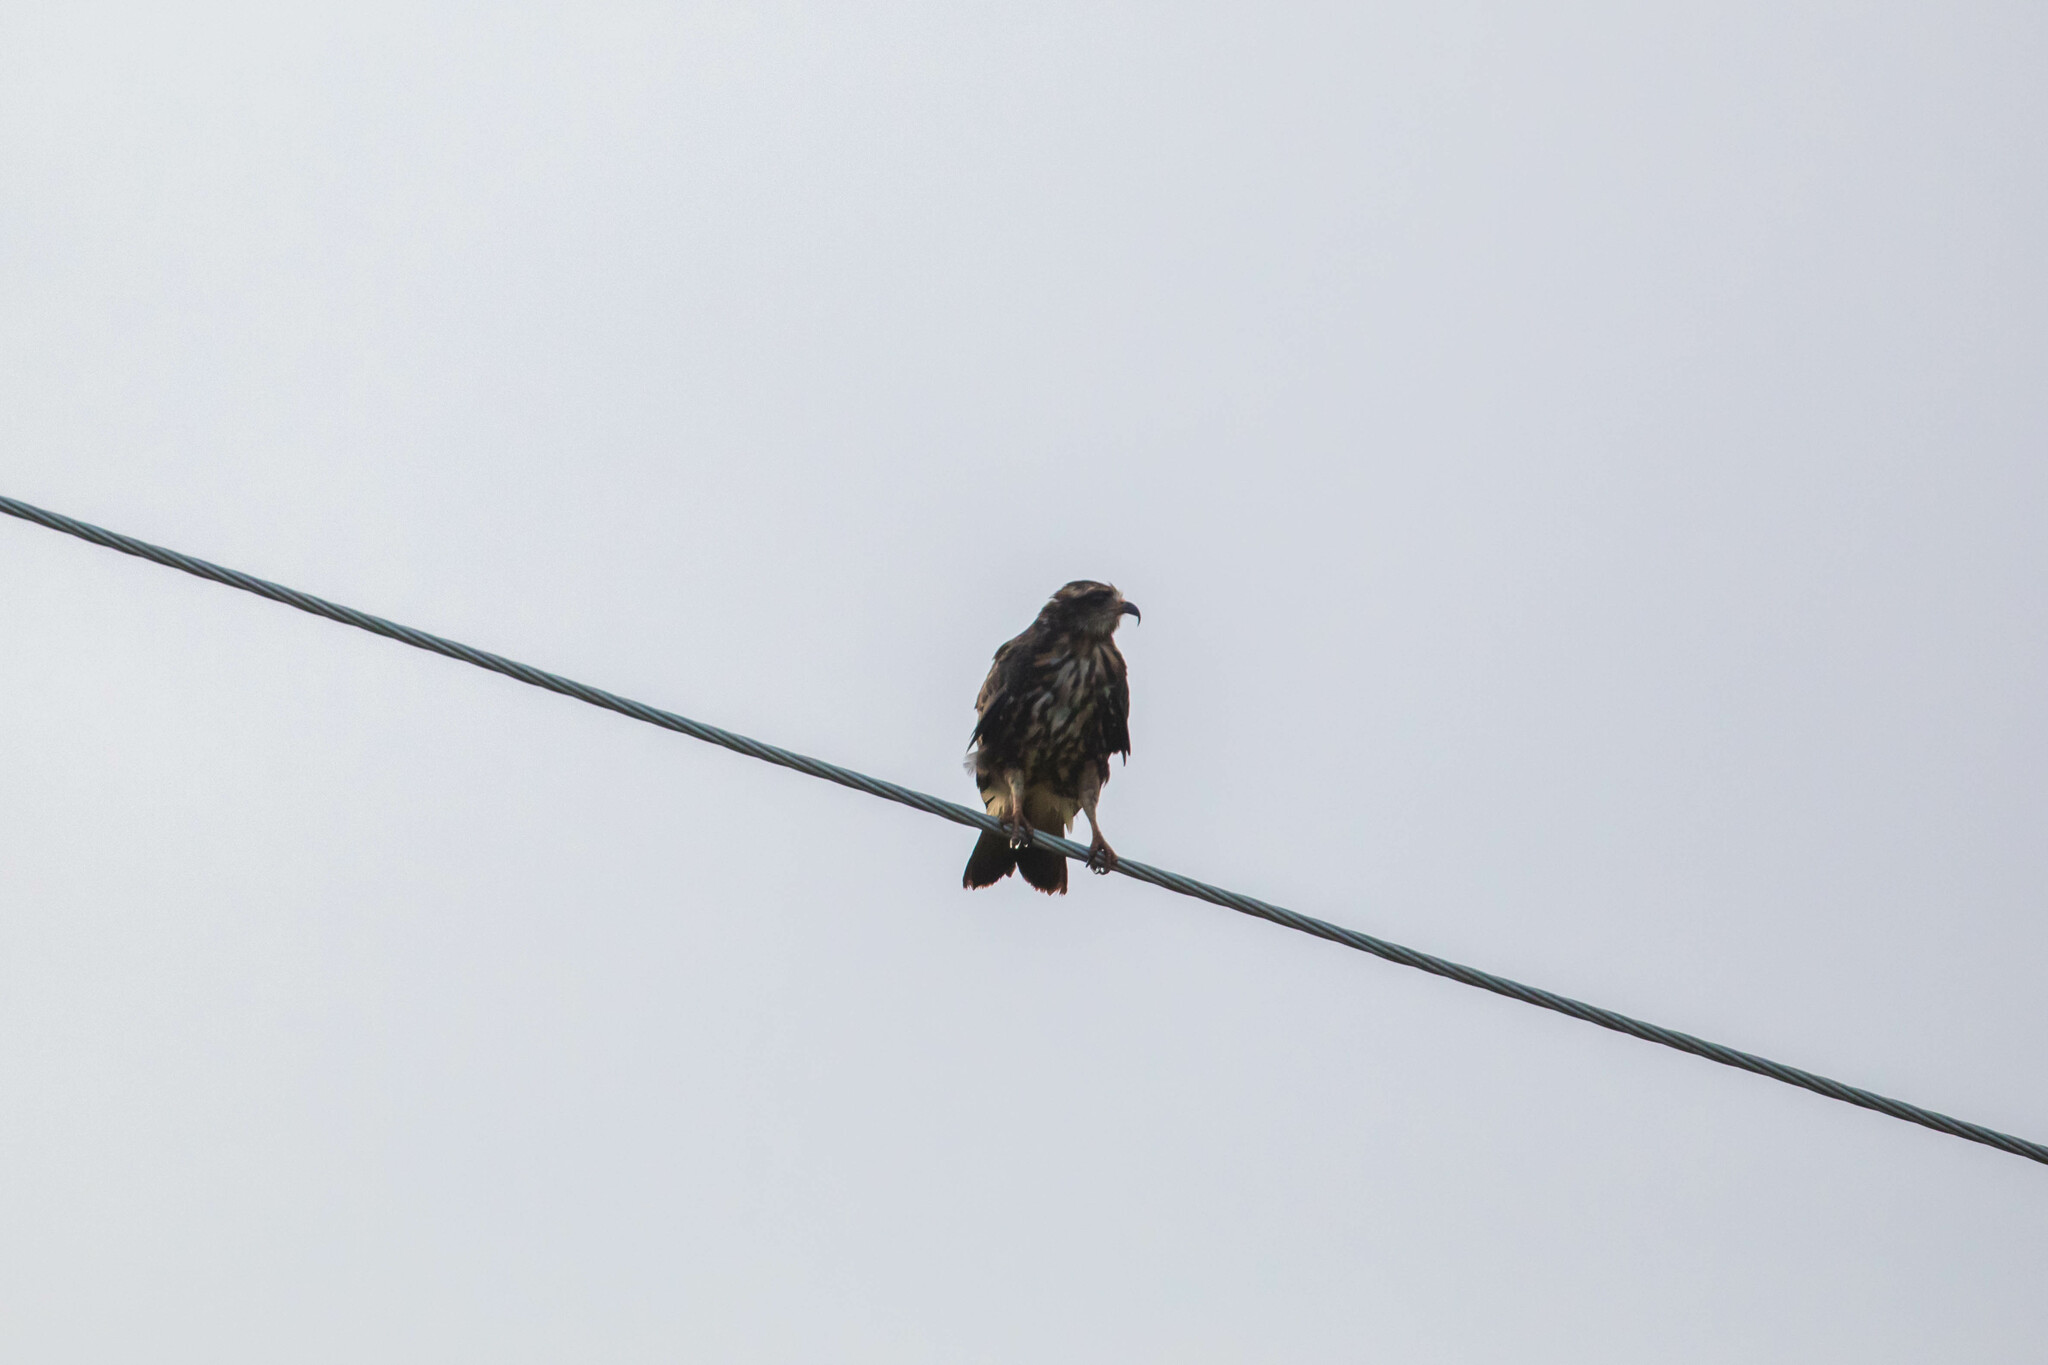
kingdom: Animalia
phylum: Chordata
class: Aves
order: Accipitriformes
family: Accipitridae
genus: Rostrhamus
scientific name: Rostrhamus sociabilis
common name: Snail kite
